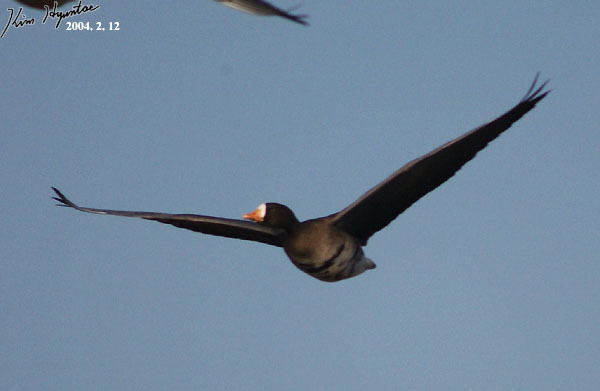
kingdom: Animalia
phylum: Chordata
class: Aves
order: Anseriformes
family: Anatidae
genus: Anser
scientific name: Anser albifrons
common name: Greater white-fronted goose
